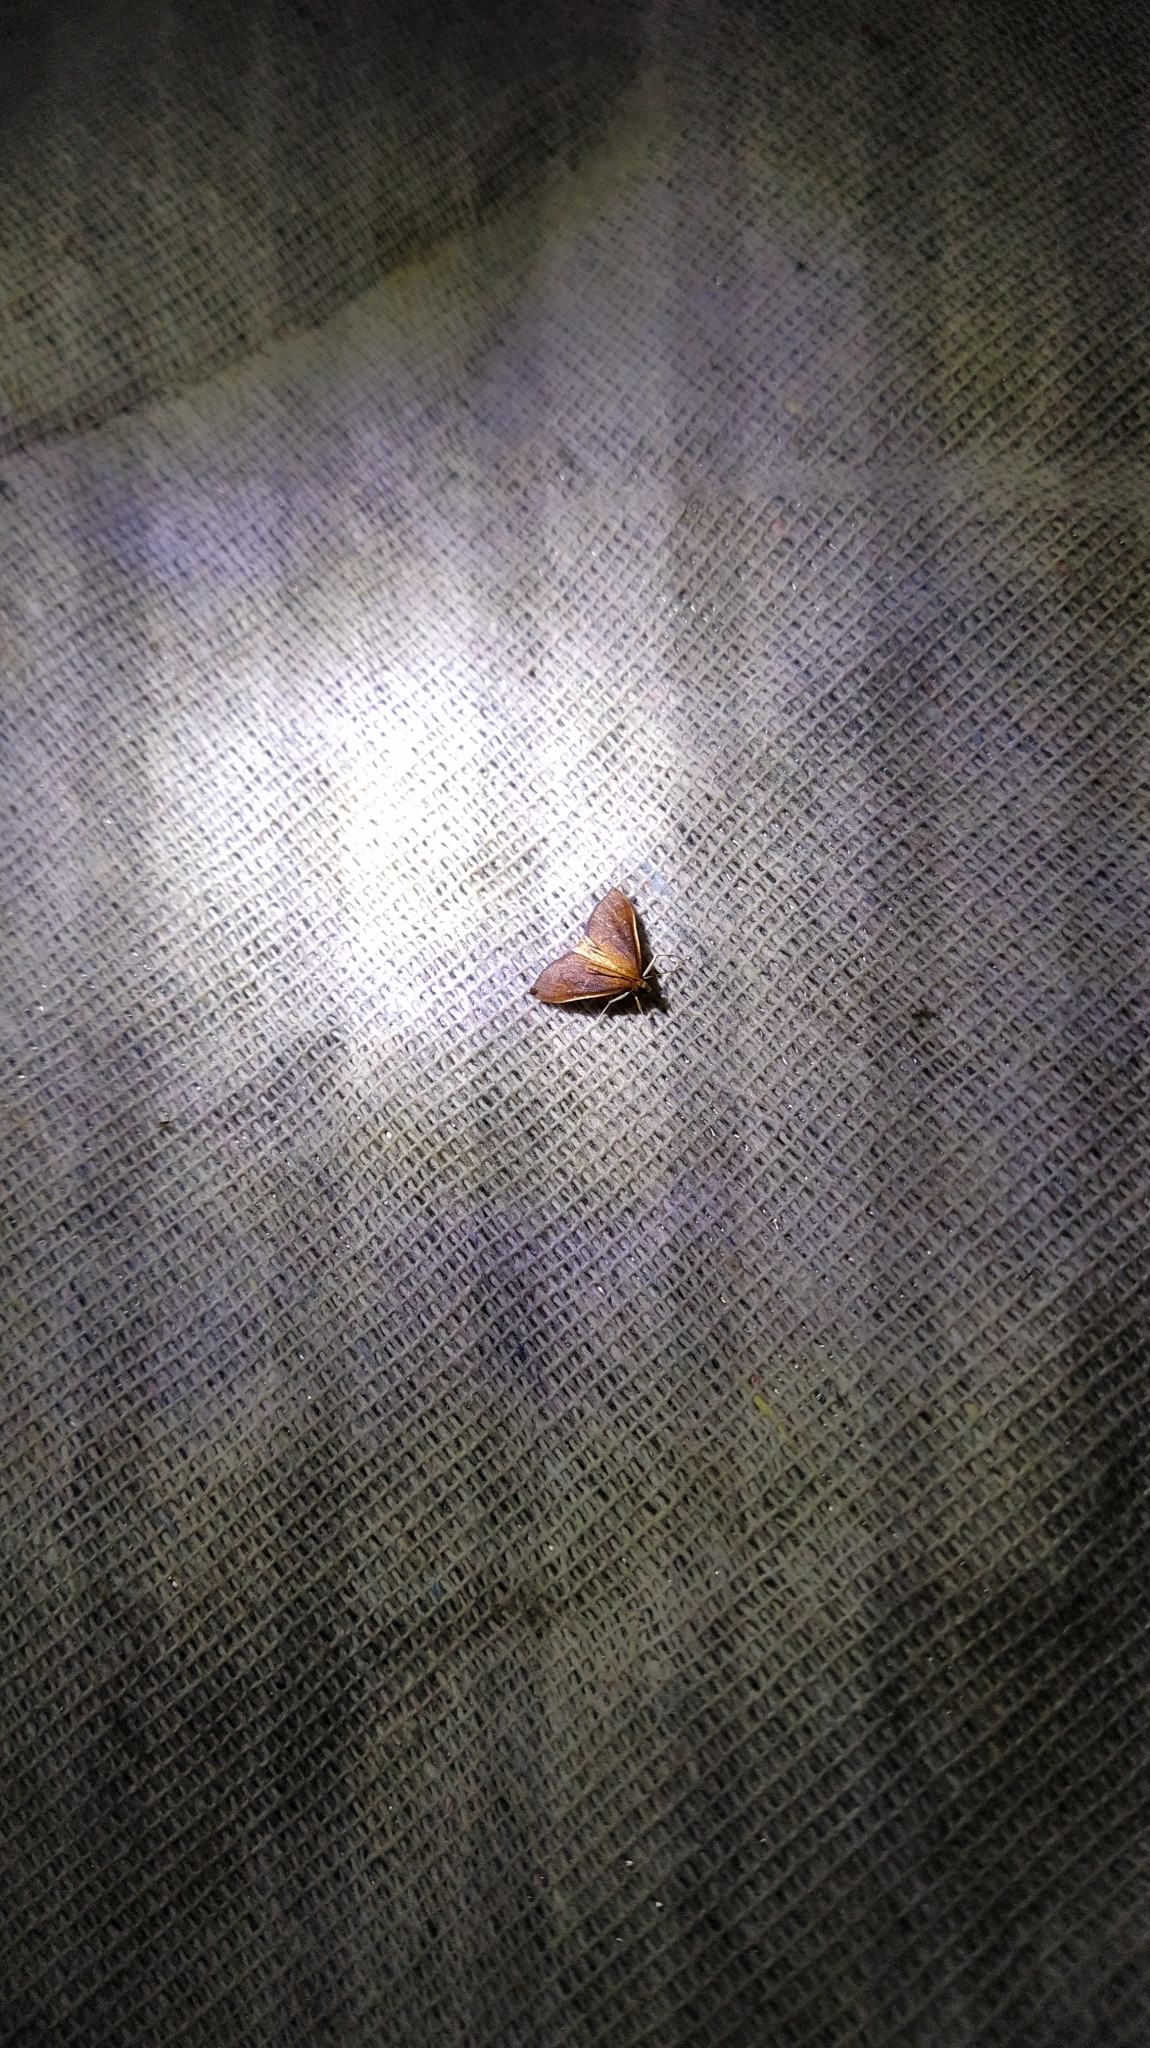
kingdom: Animalia
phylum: Arthropoda
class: Insecta
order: Lepidoptera
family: Crambidae
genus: Udea
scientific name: Udea daiclesalis
